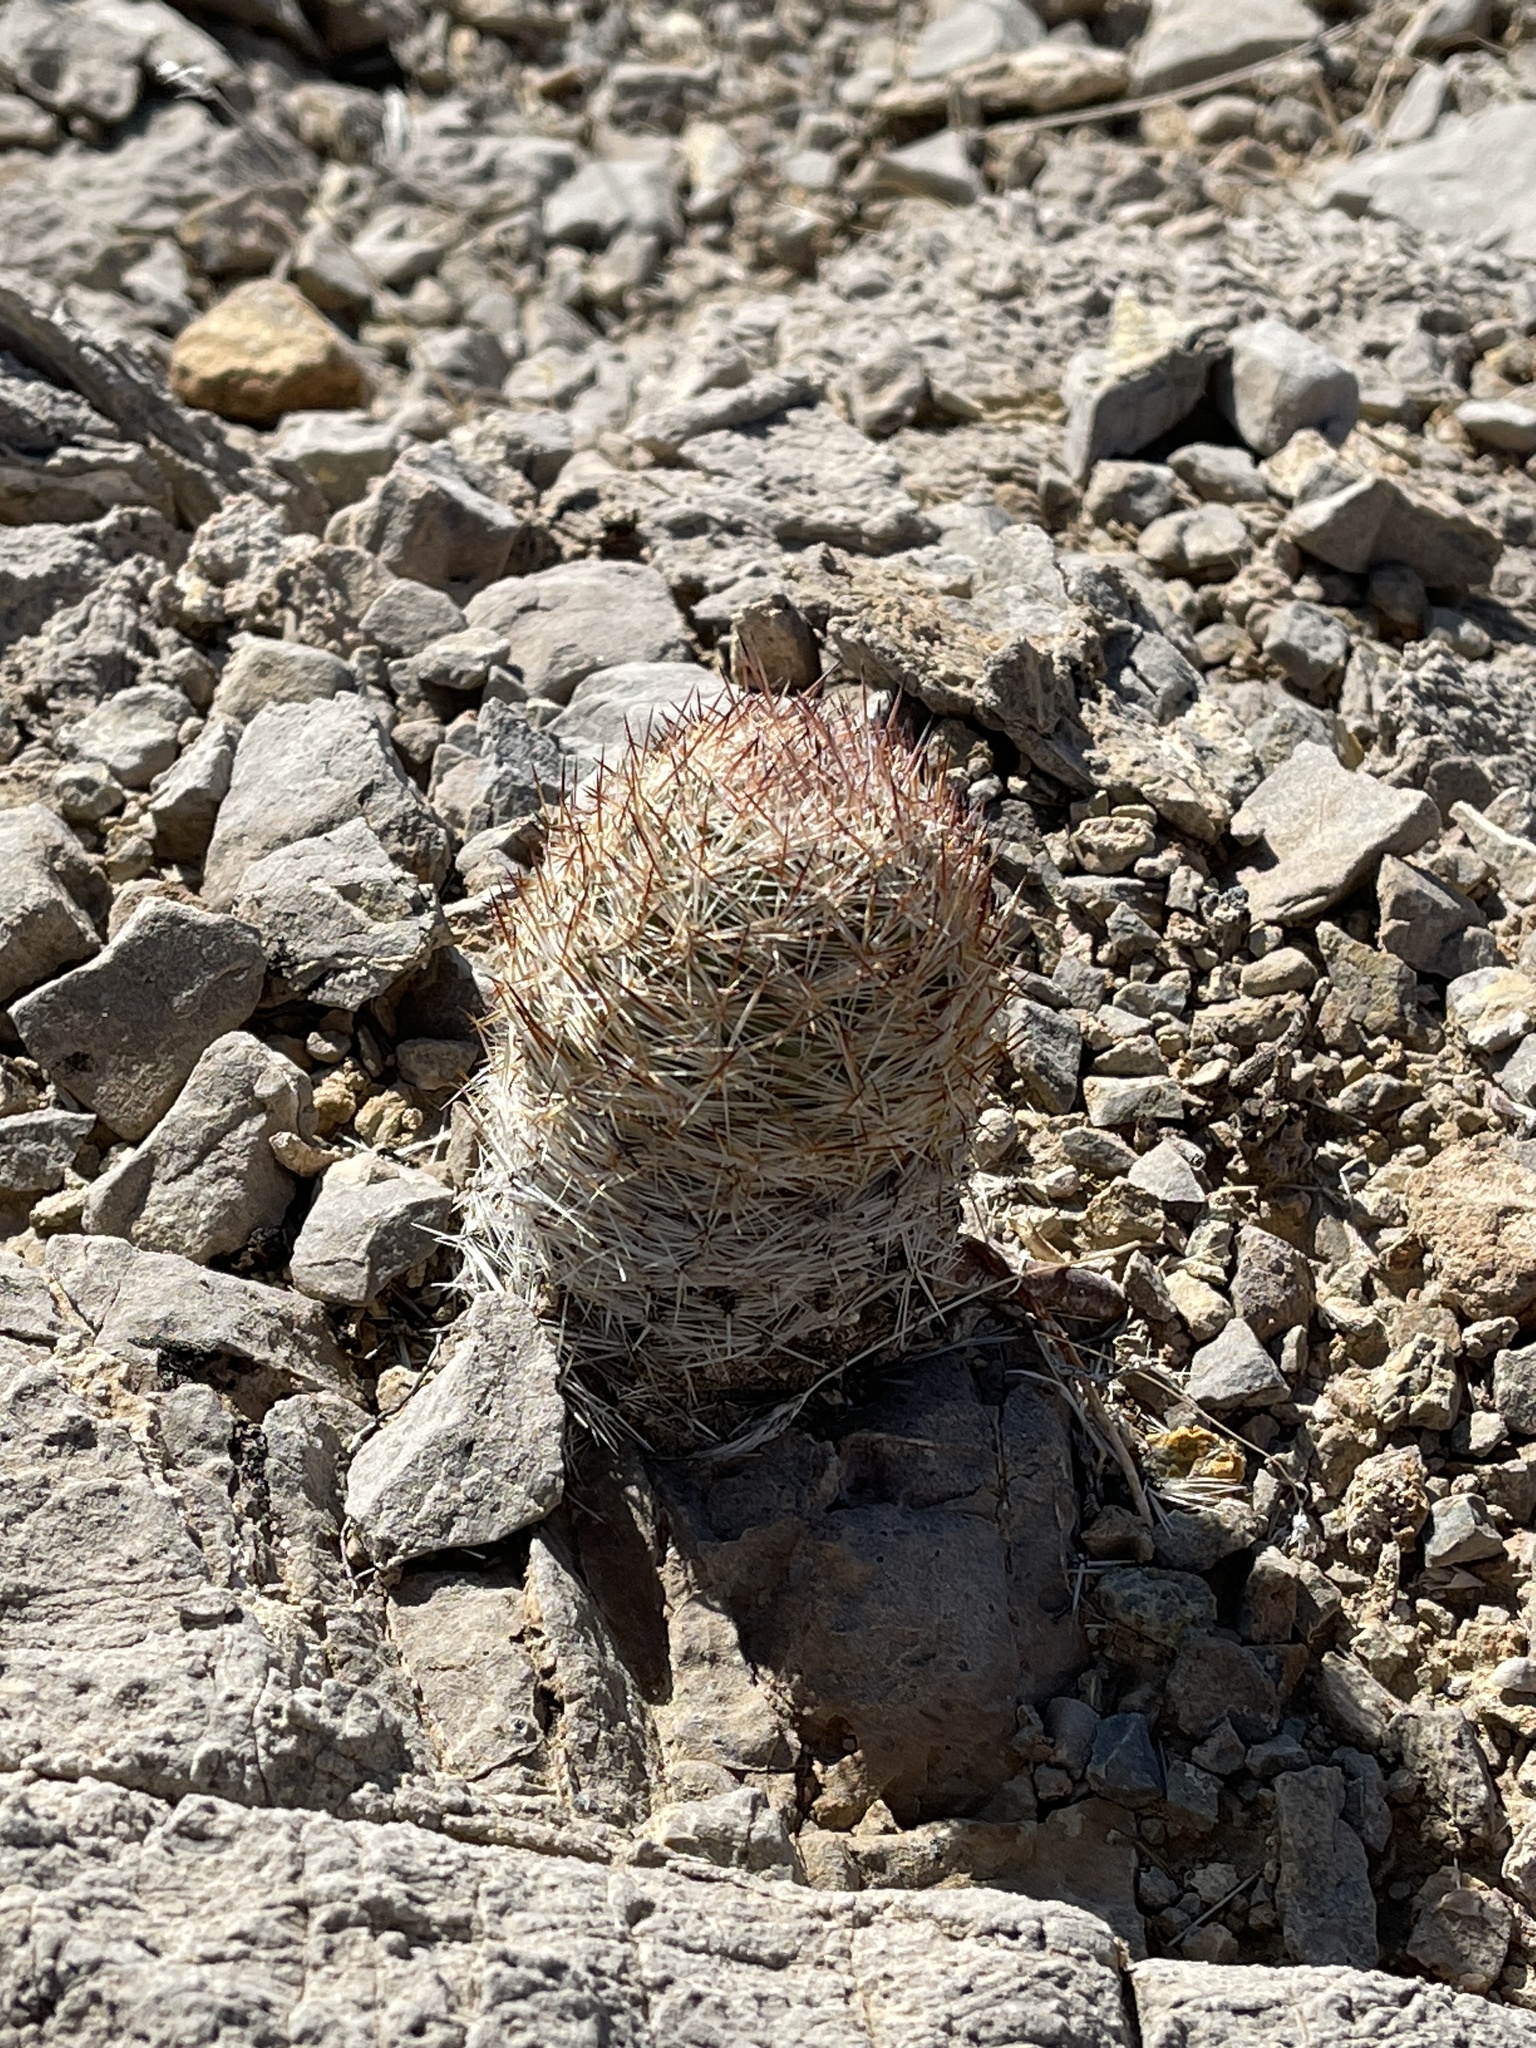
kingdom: Plantae
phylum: Tracheophyta
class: Magnoliopsida
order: Caryophyllales
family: Cactaceae
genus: Pelecyphora
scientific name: Pelecyphora dasyacantha
